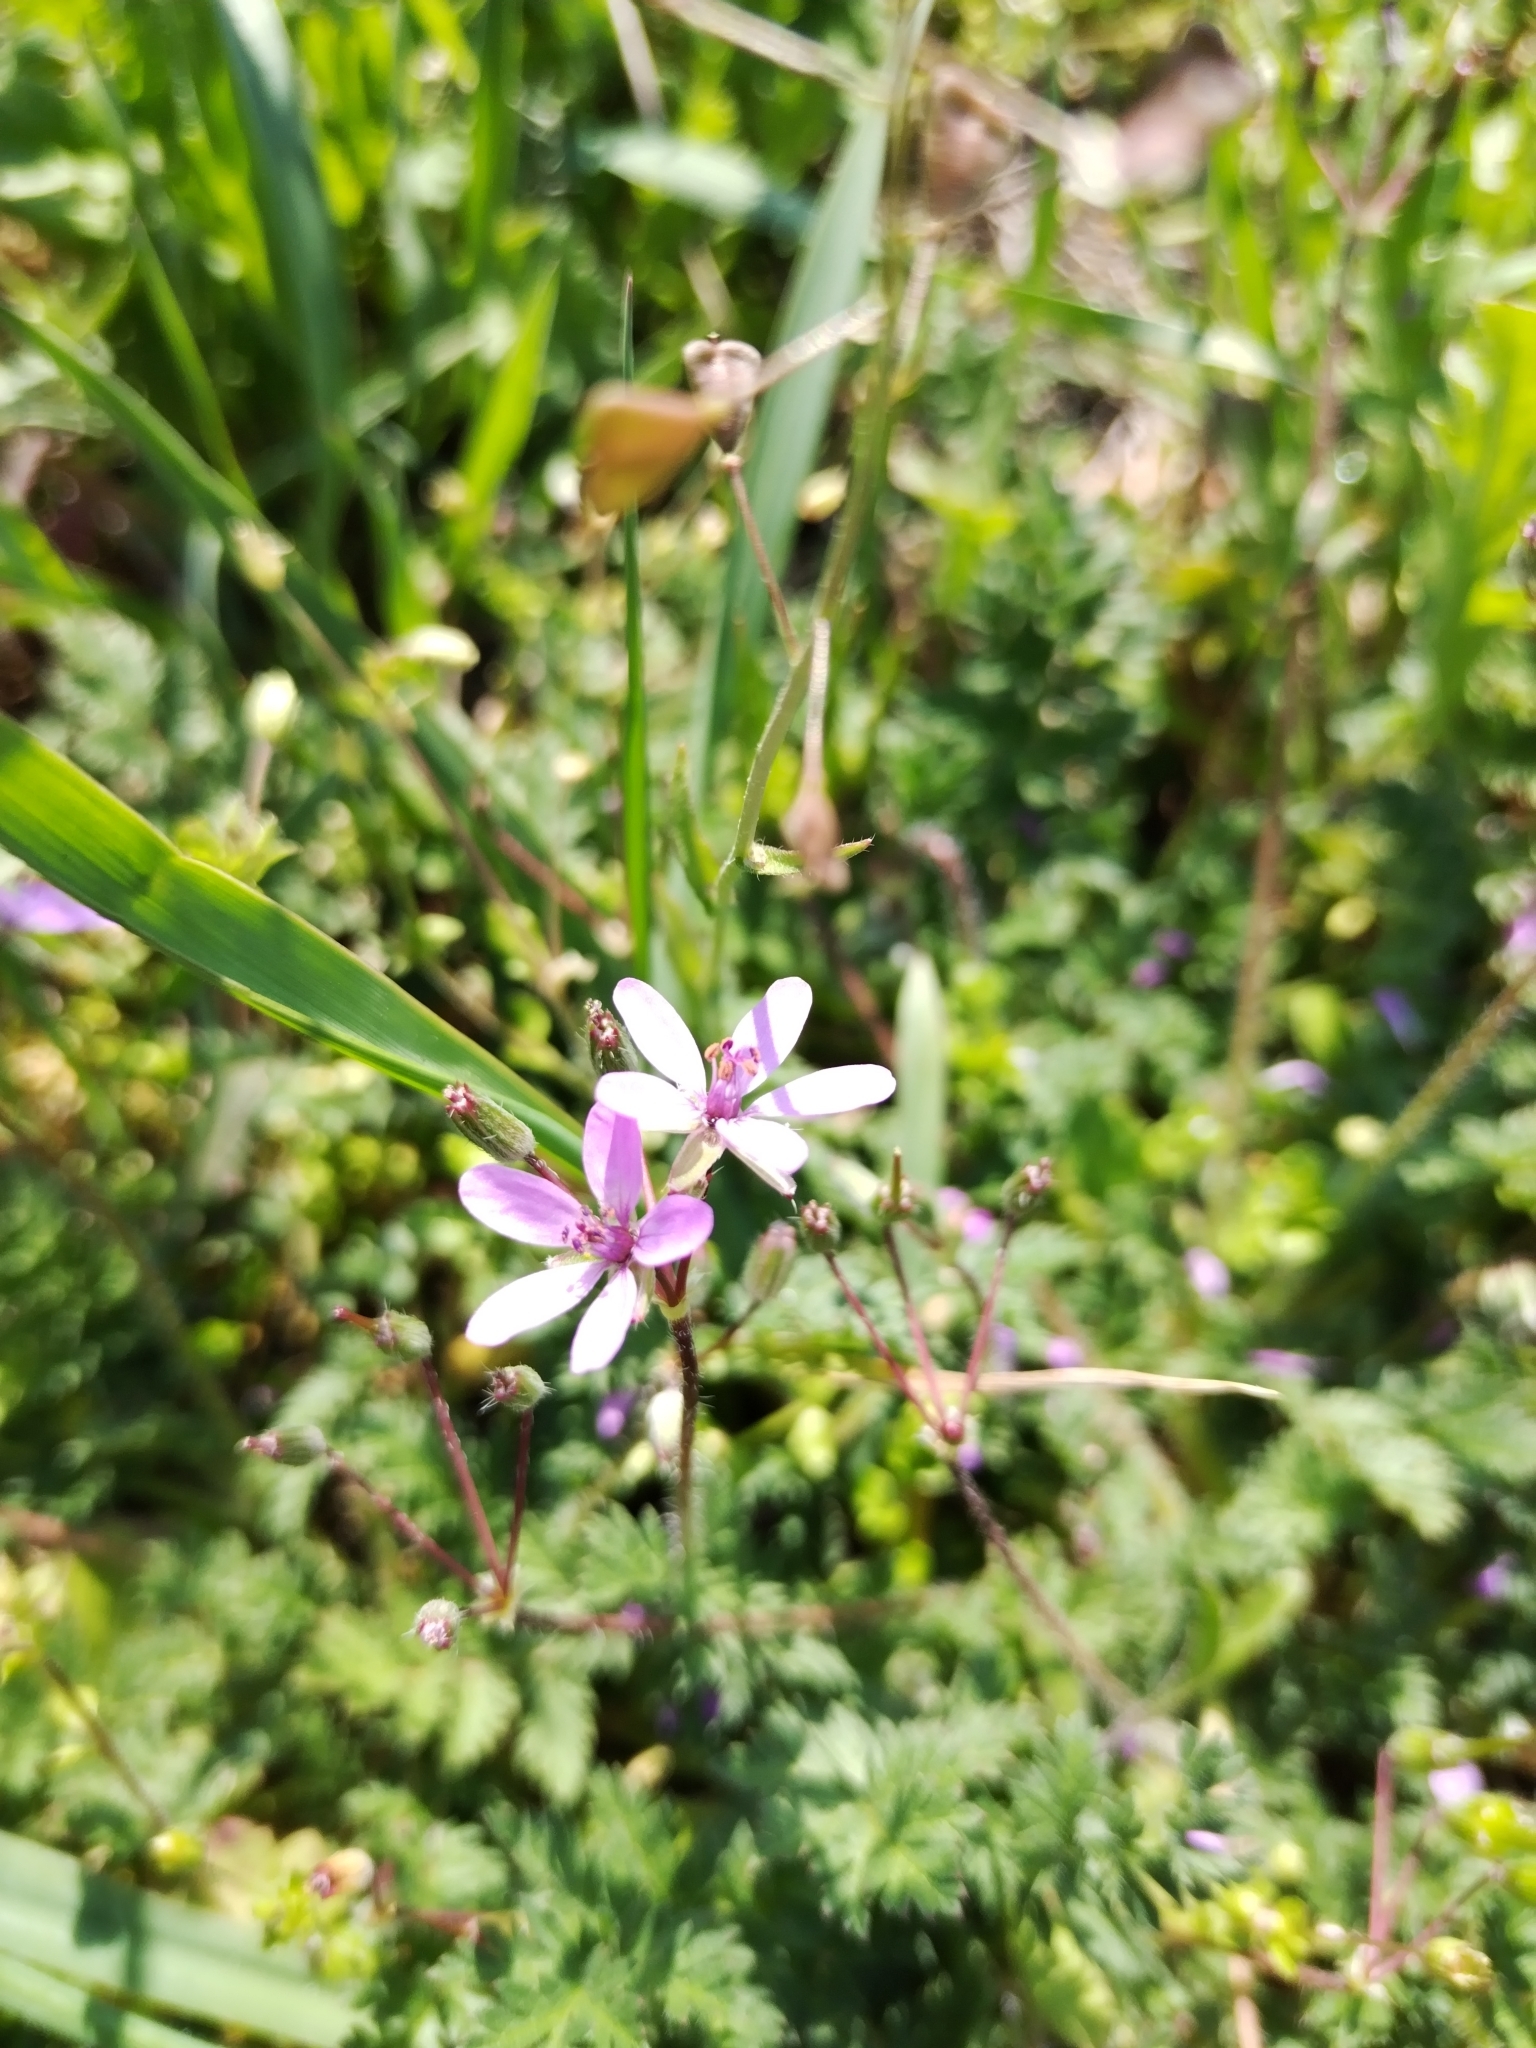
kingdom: Plantae
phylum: Tracheophyta
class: Magnoliopsida
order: Geraniales
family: Geraniaceae
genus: Erodium
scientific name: Erodium cicutarium
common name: Common stork's-bill
